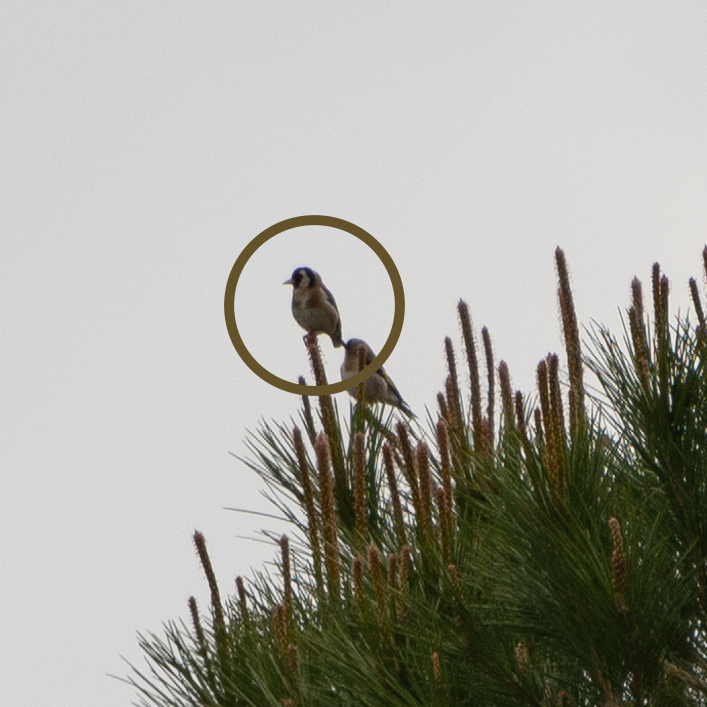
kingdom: Animalia
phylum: Chordata
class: Aves
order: Passeriformes
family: Fringillidae
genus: Carduelis
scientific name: Carduelis carduelis
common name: European goldfinch
